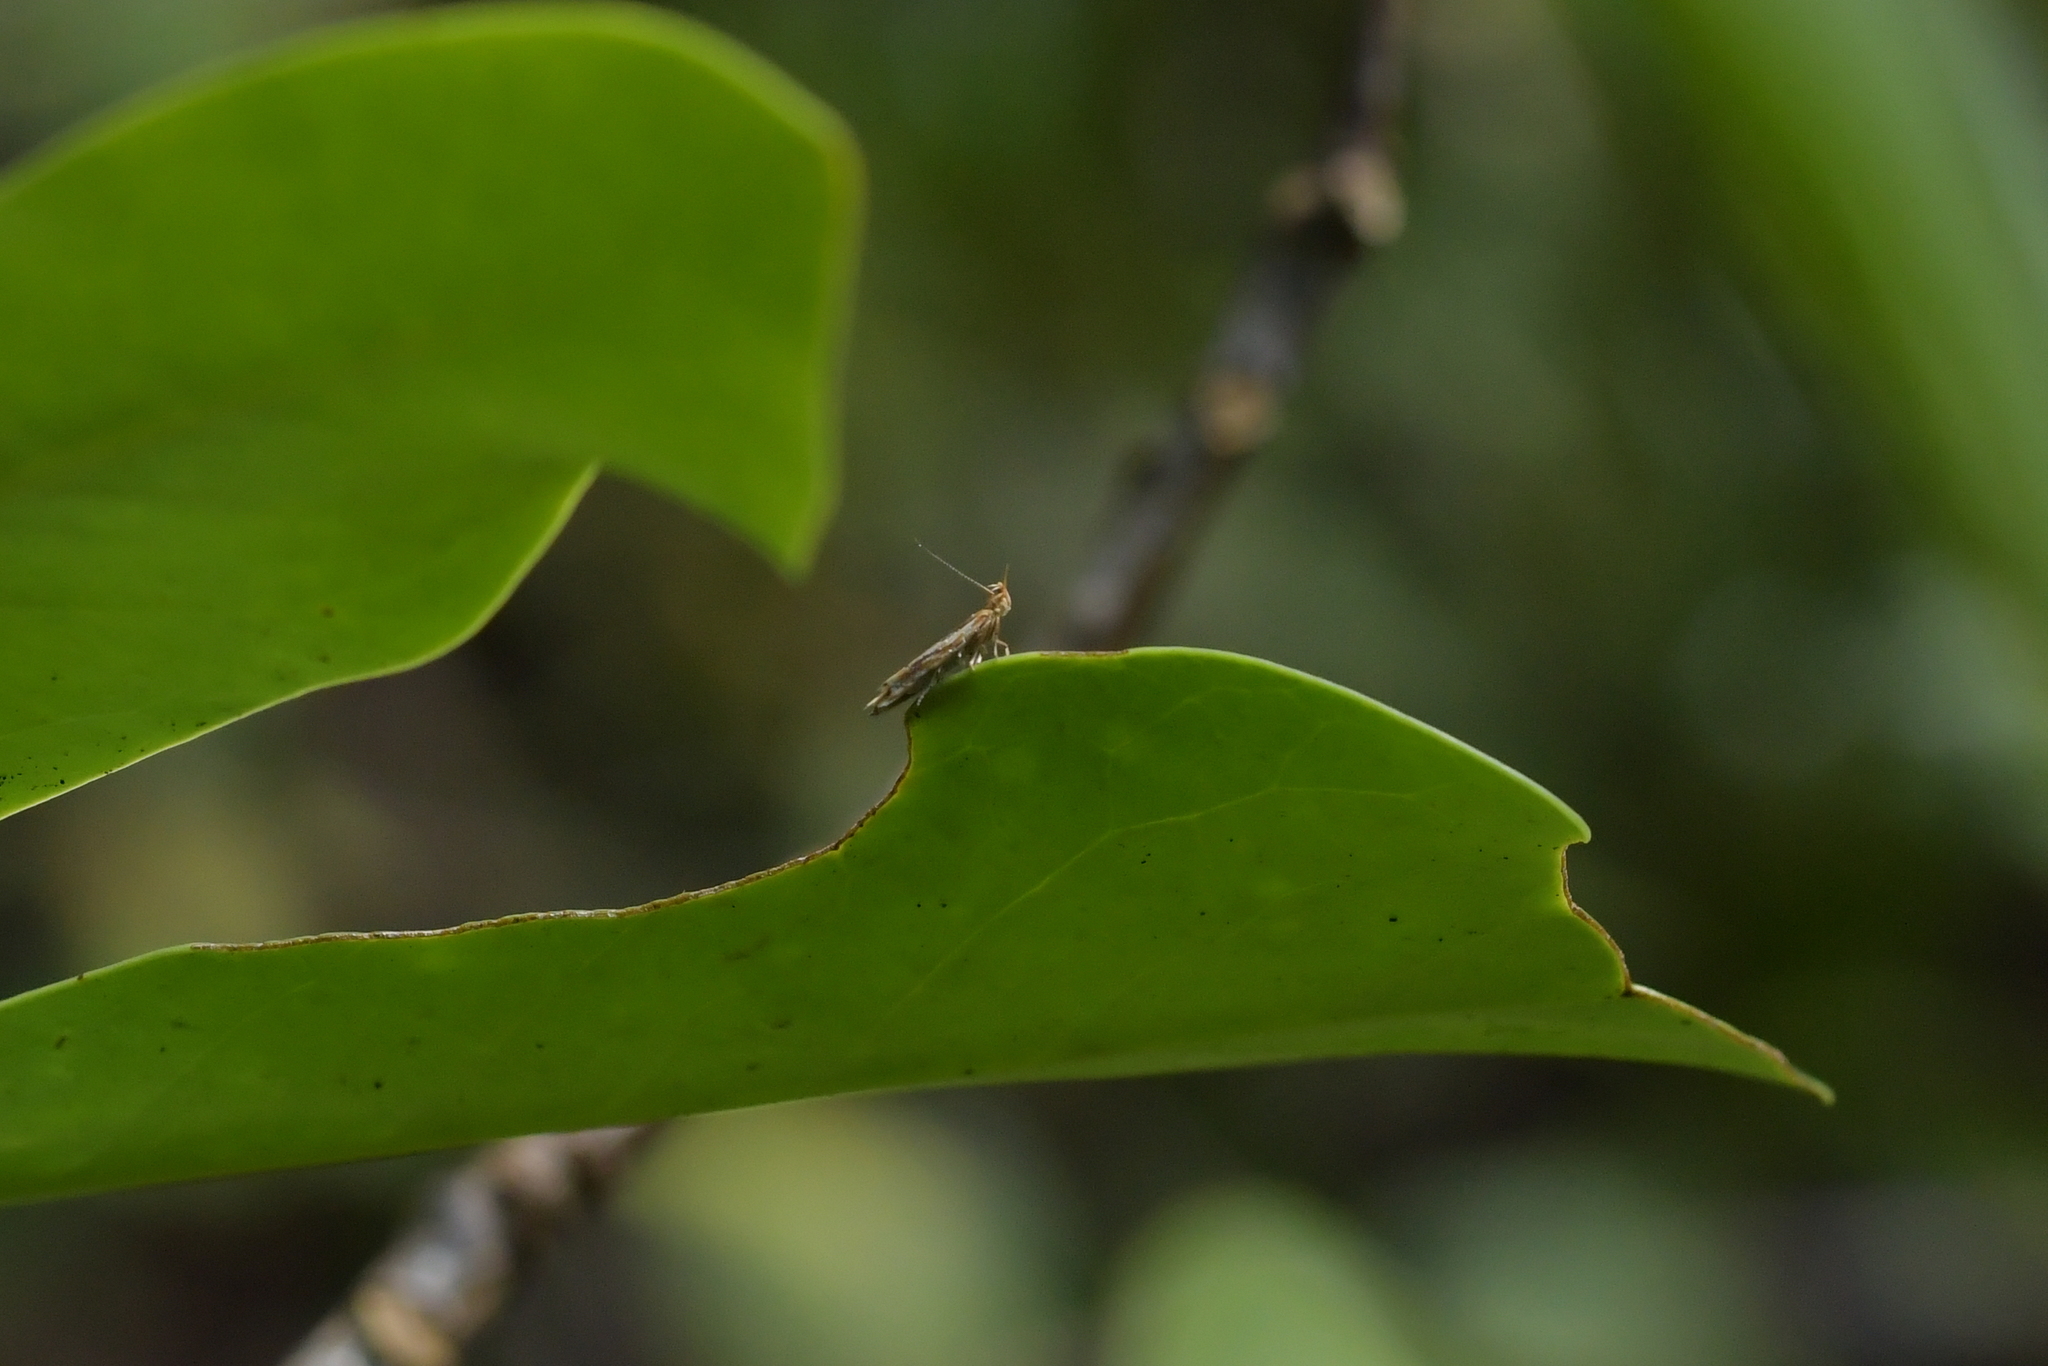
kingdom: Animalia
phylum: Arthropoda
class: Insecta
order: Lepidoptera
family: Depressariidae
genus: Eutorna
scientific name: Eutorna symmorpha
